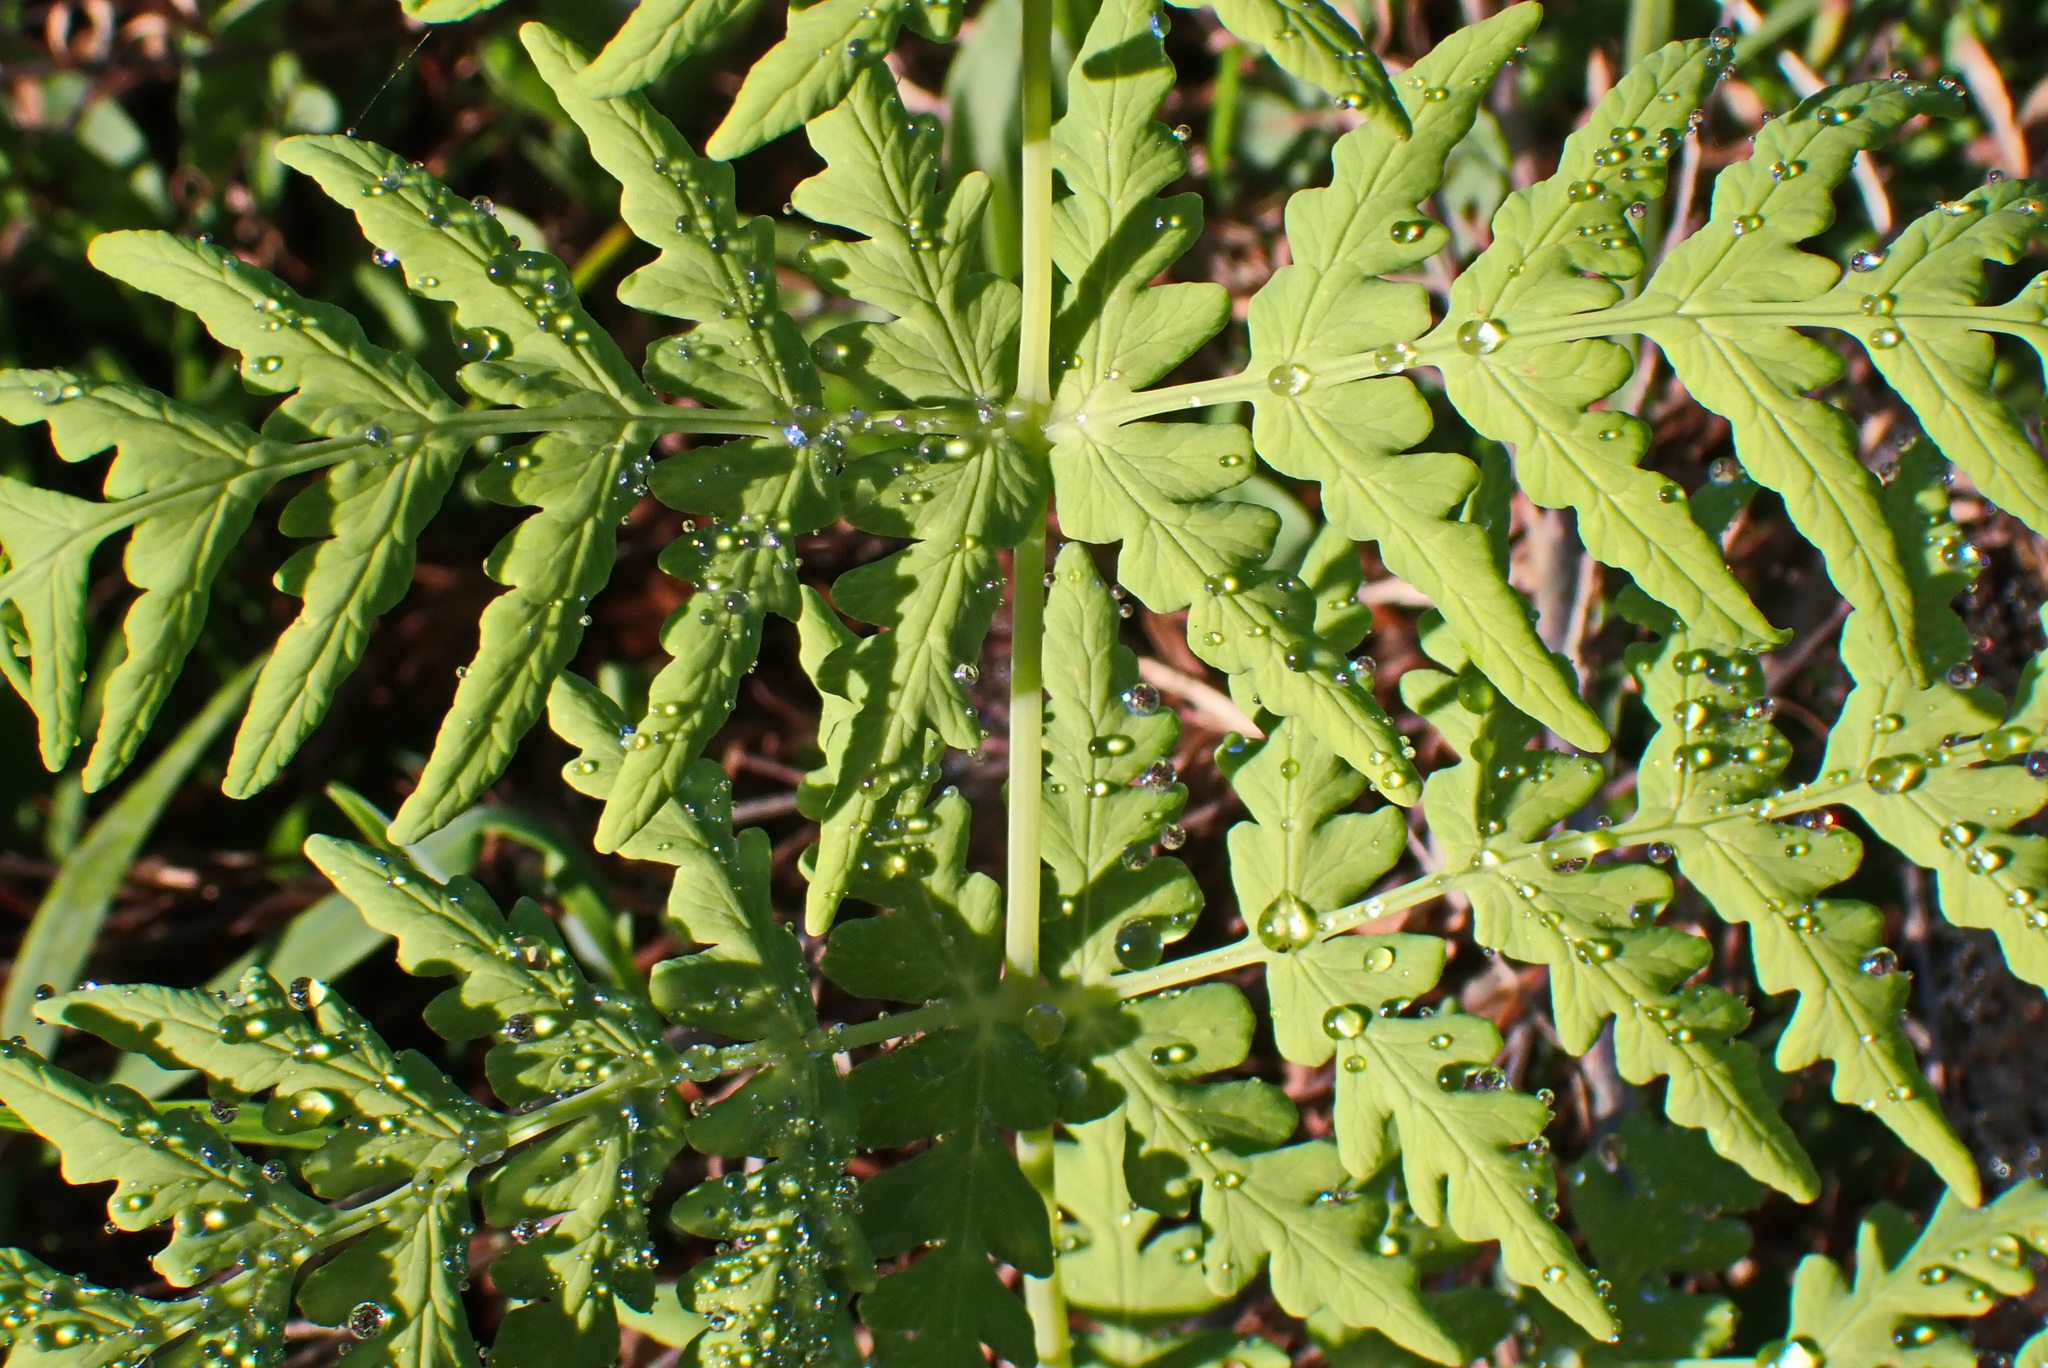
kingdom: Plantae
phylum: Tracheophyta
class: Polypodiopsida
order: Polypodiales
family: Dennstaedtiaceae
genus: Histiopteris
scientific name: Histiopteris incisa
